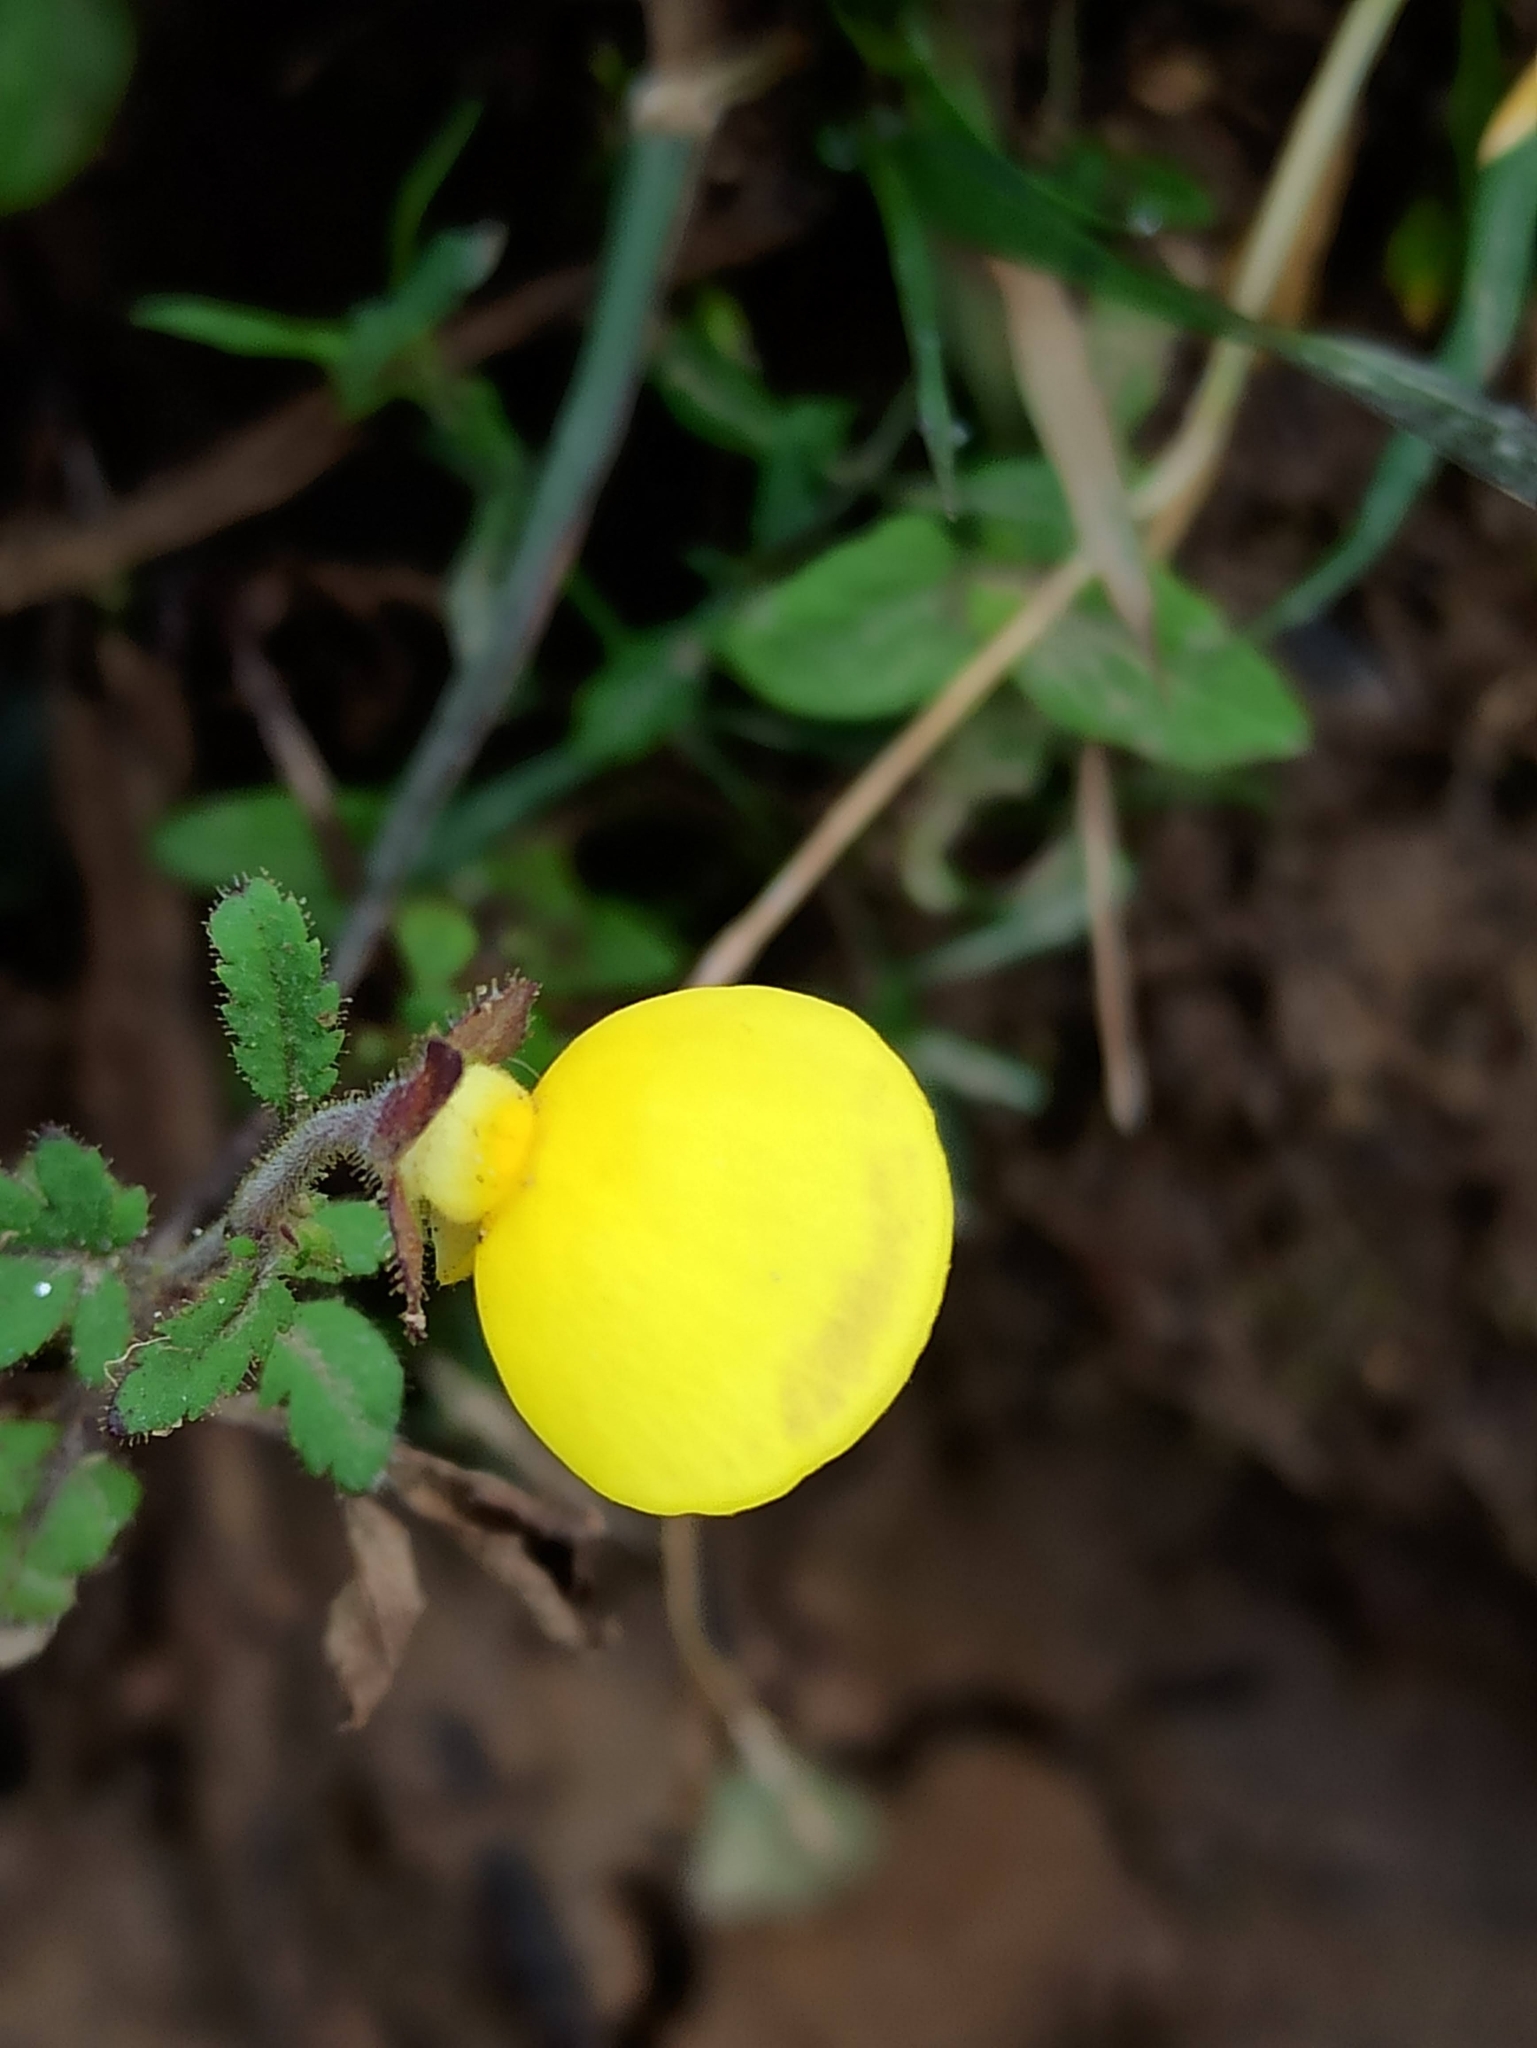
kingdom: Plantae
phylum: Tracheophyta
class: Magnoliopsida
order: Lamiales
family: Calceolariaceae
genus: Calceolaria
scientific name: Calceolaria tripartita
